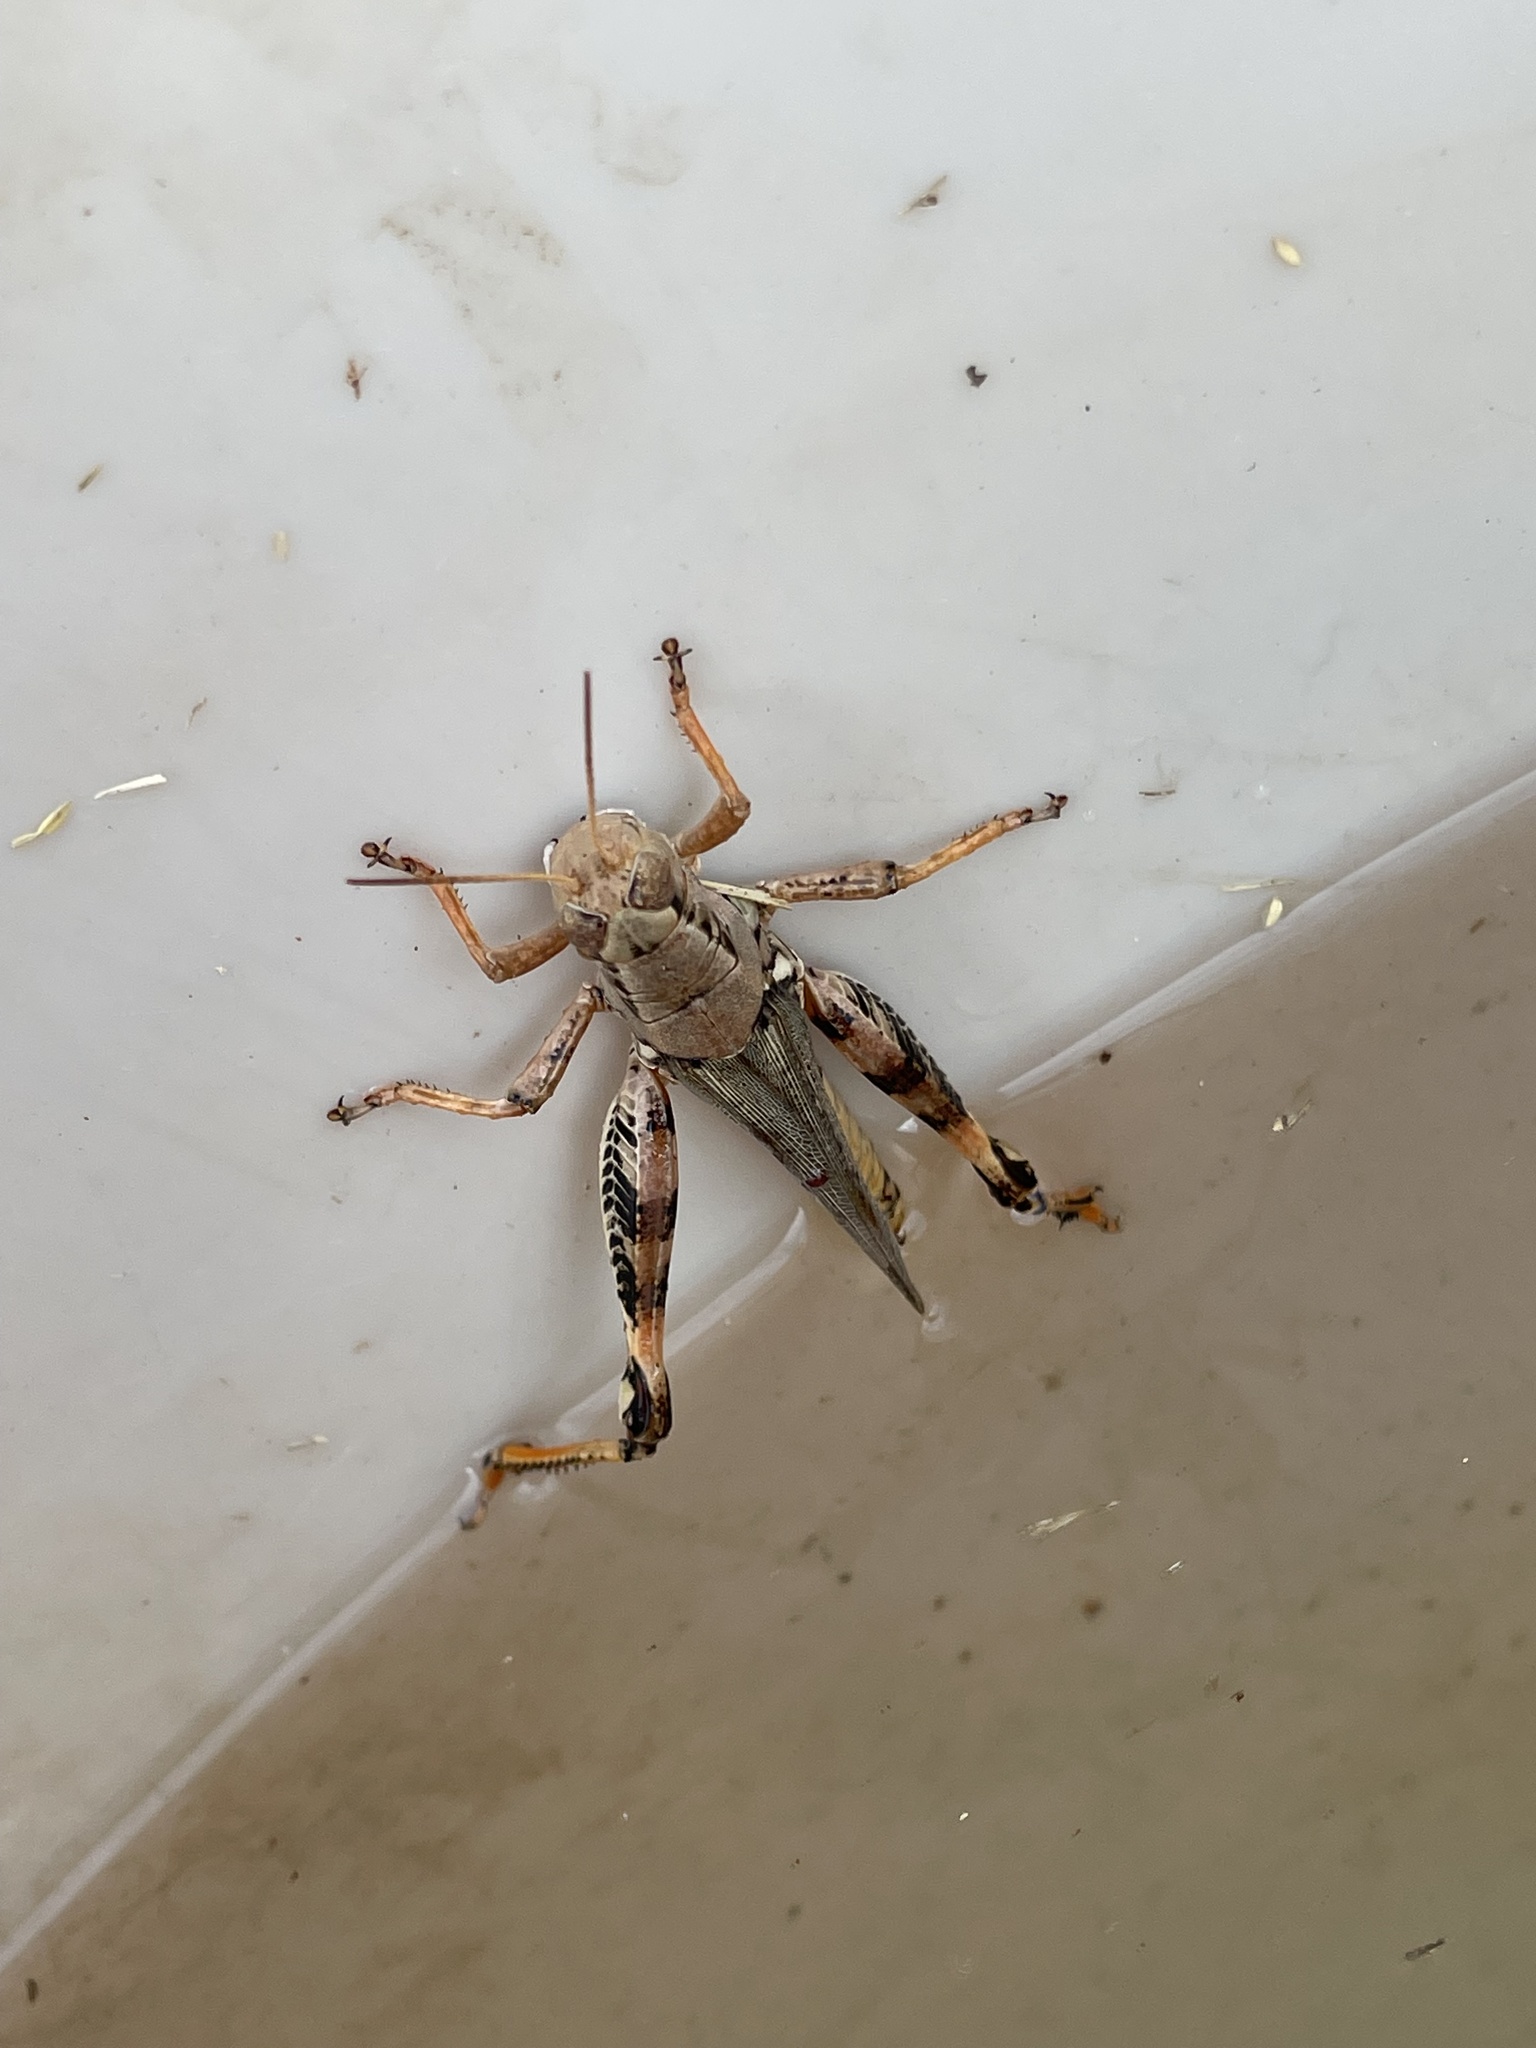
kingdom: Animalia
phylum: Arthropoda
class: Insecta
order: Orthoptera
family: Acrididae
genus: Melanoplus
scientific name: Melanoplus ponderosus
